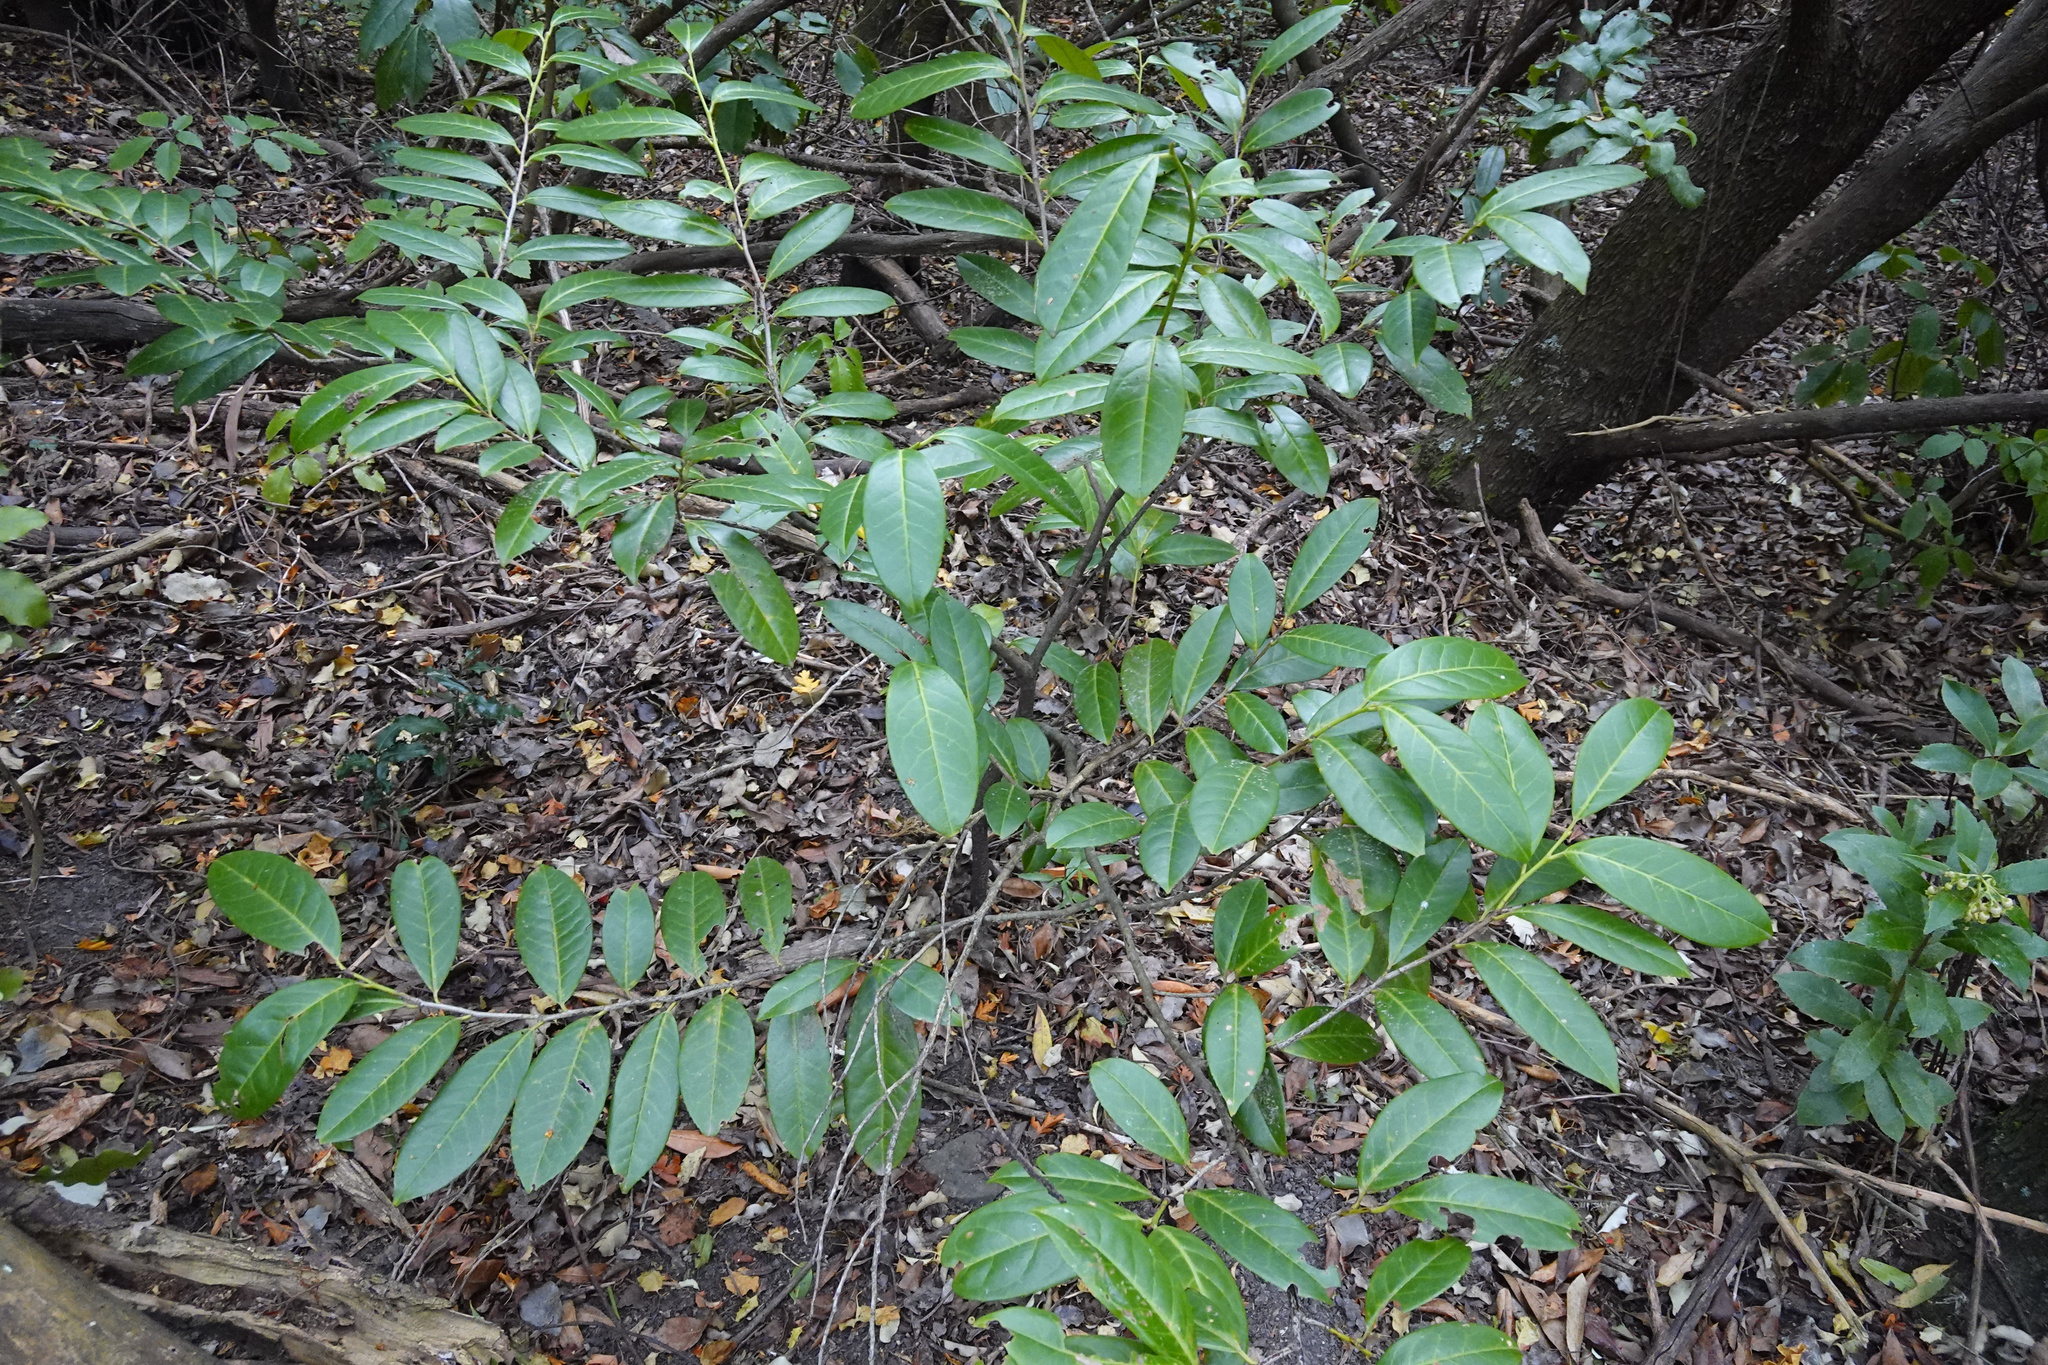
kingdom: Plantae
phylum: Tracheophyta
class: Magnoliopsida
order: Rosales
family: Rosaceae
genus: Prunus
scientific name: Prunus laurocerasus
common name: Cherry laurel
